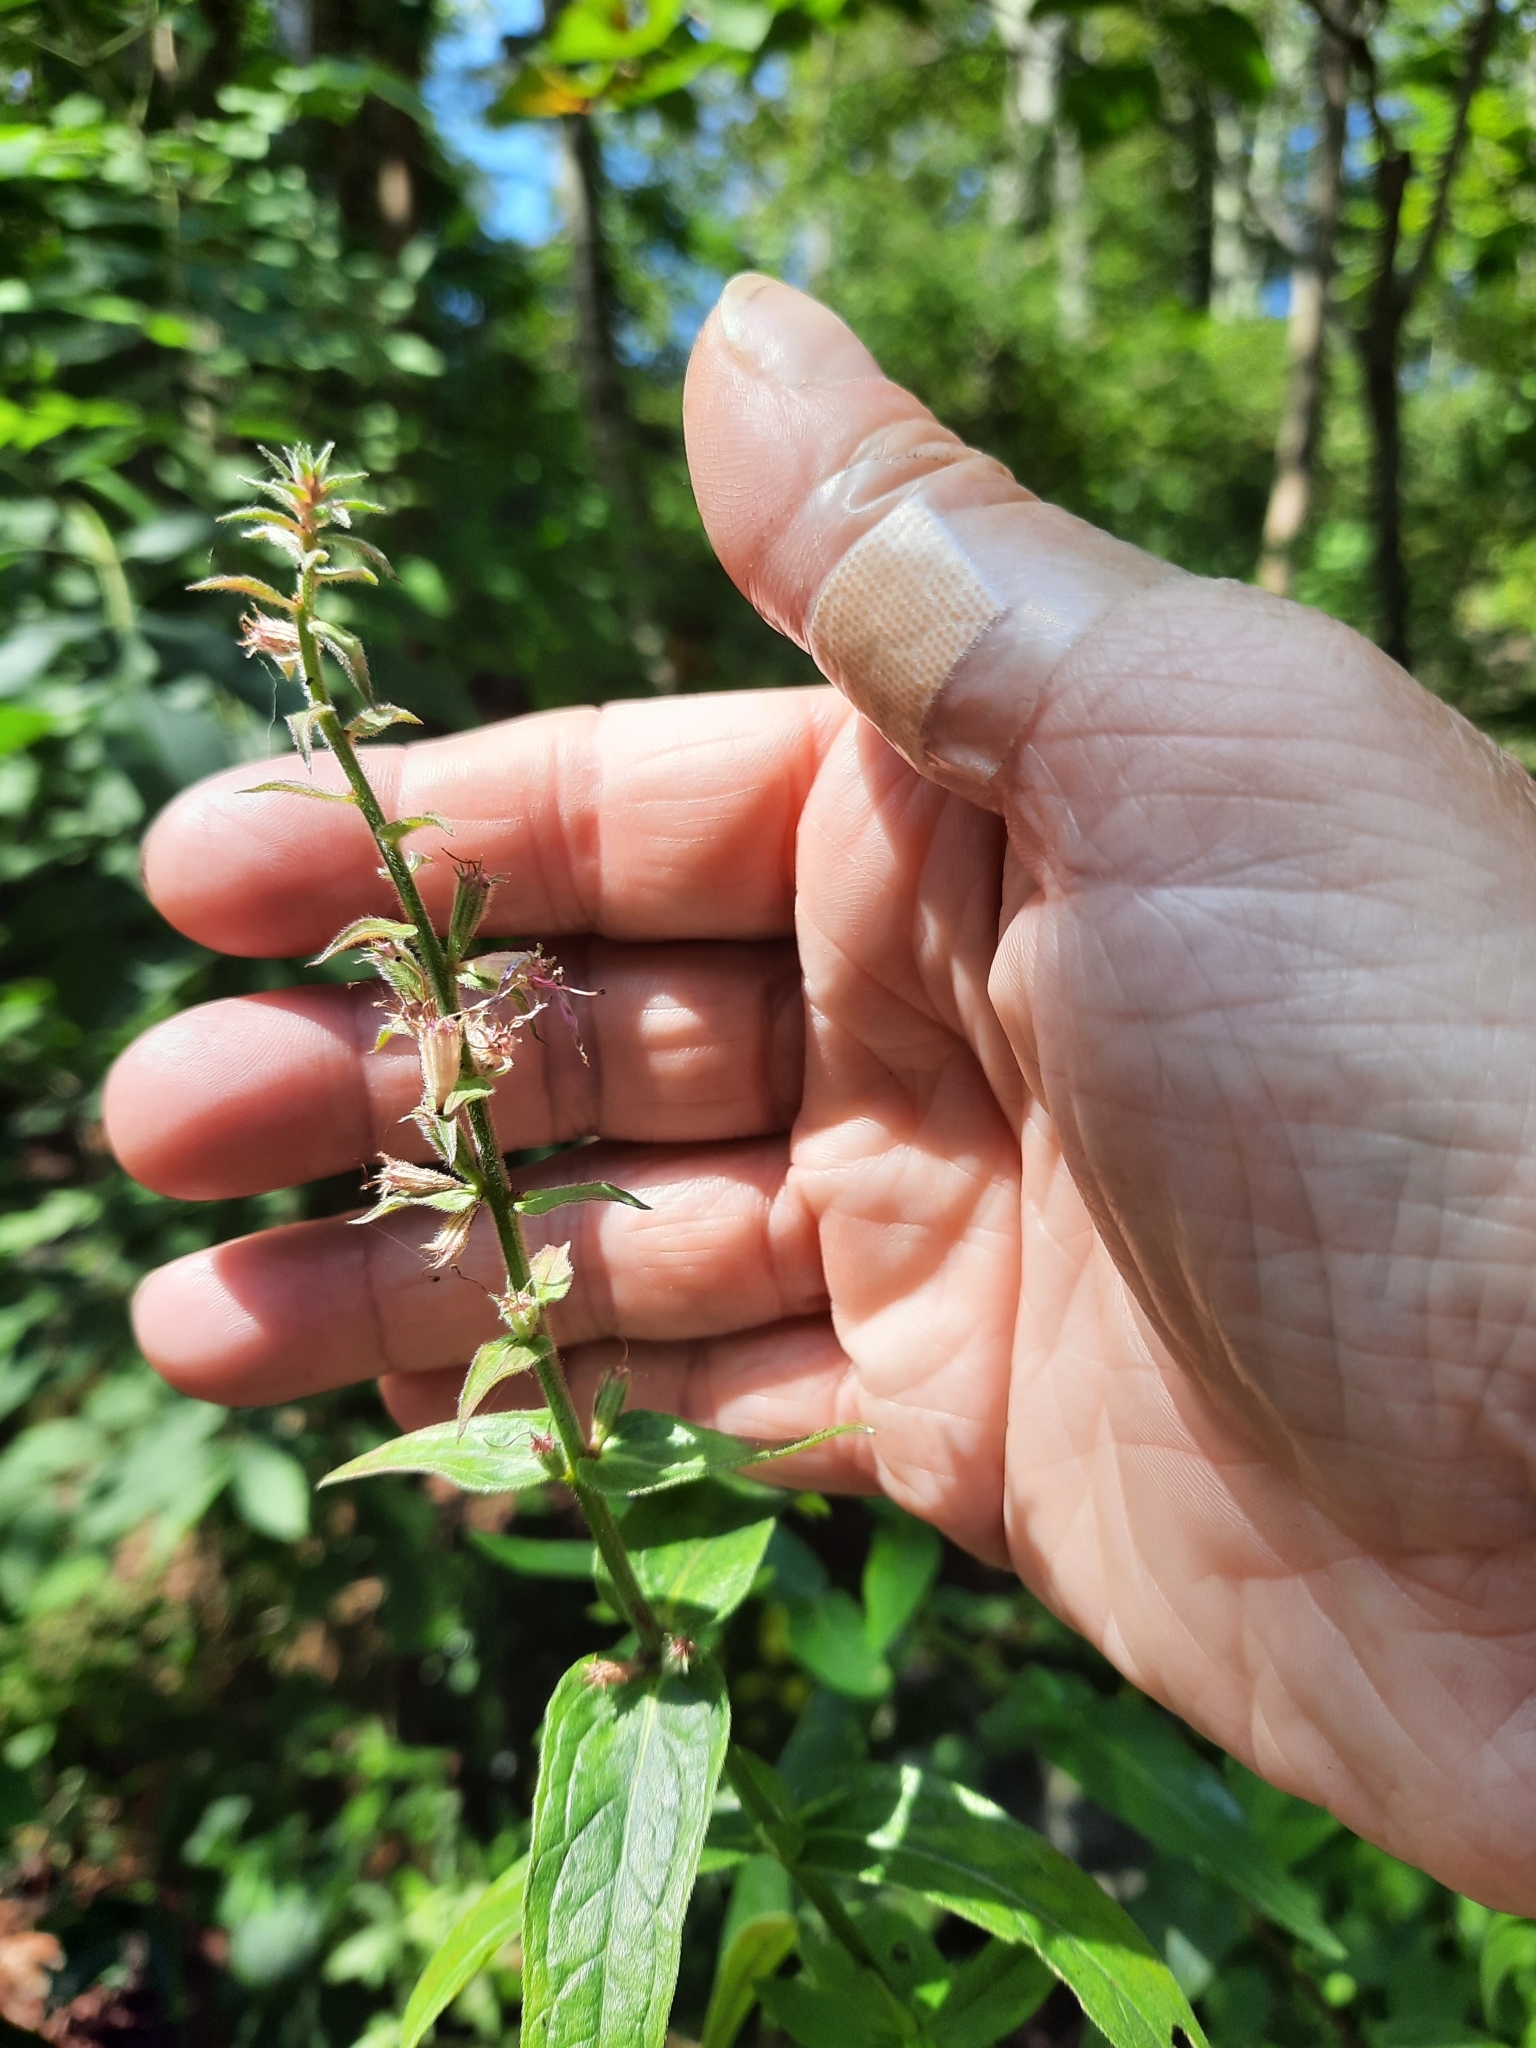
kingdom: Plantae
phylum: Tracheophyta
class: Magnoliopsida
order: Myrtales
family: Lythraceae
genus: Lythrum
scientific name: Lythrum salicaria
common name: Purple loosestrife
